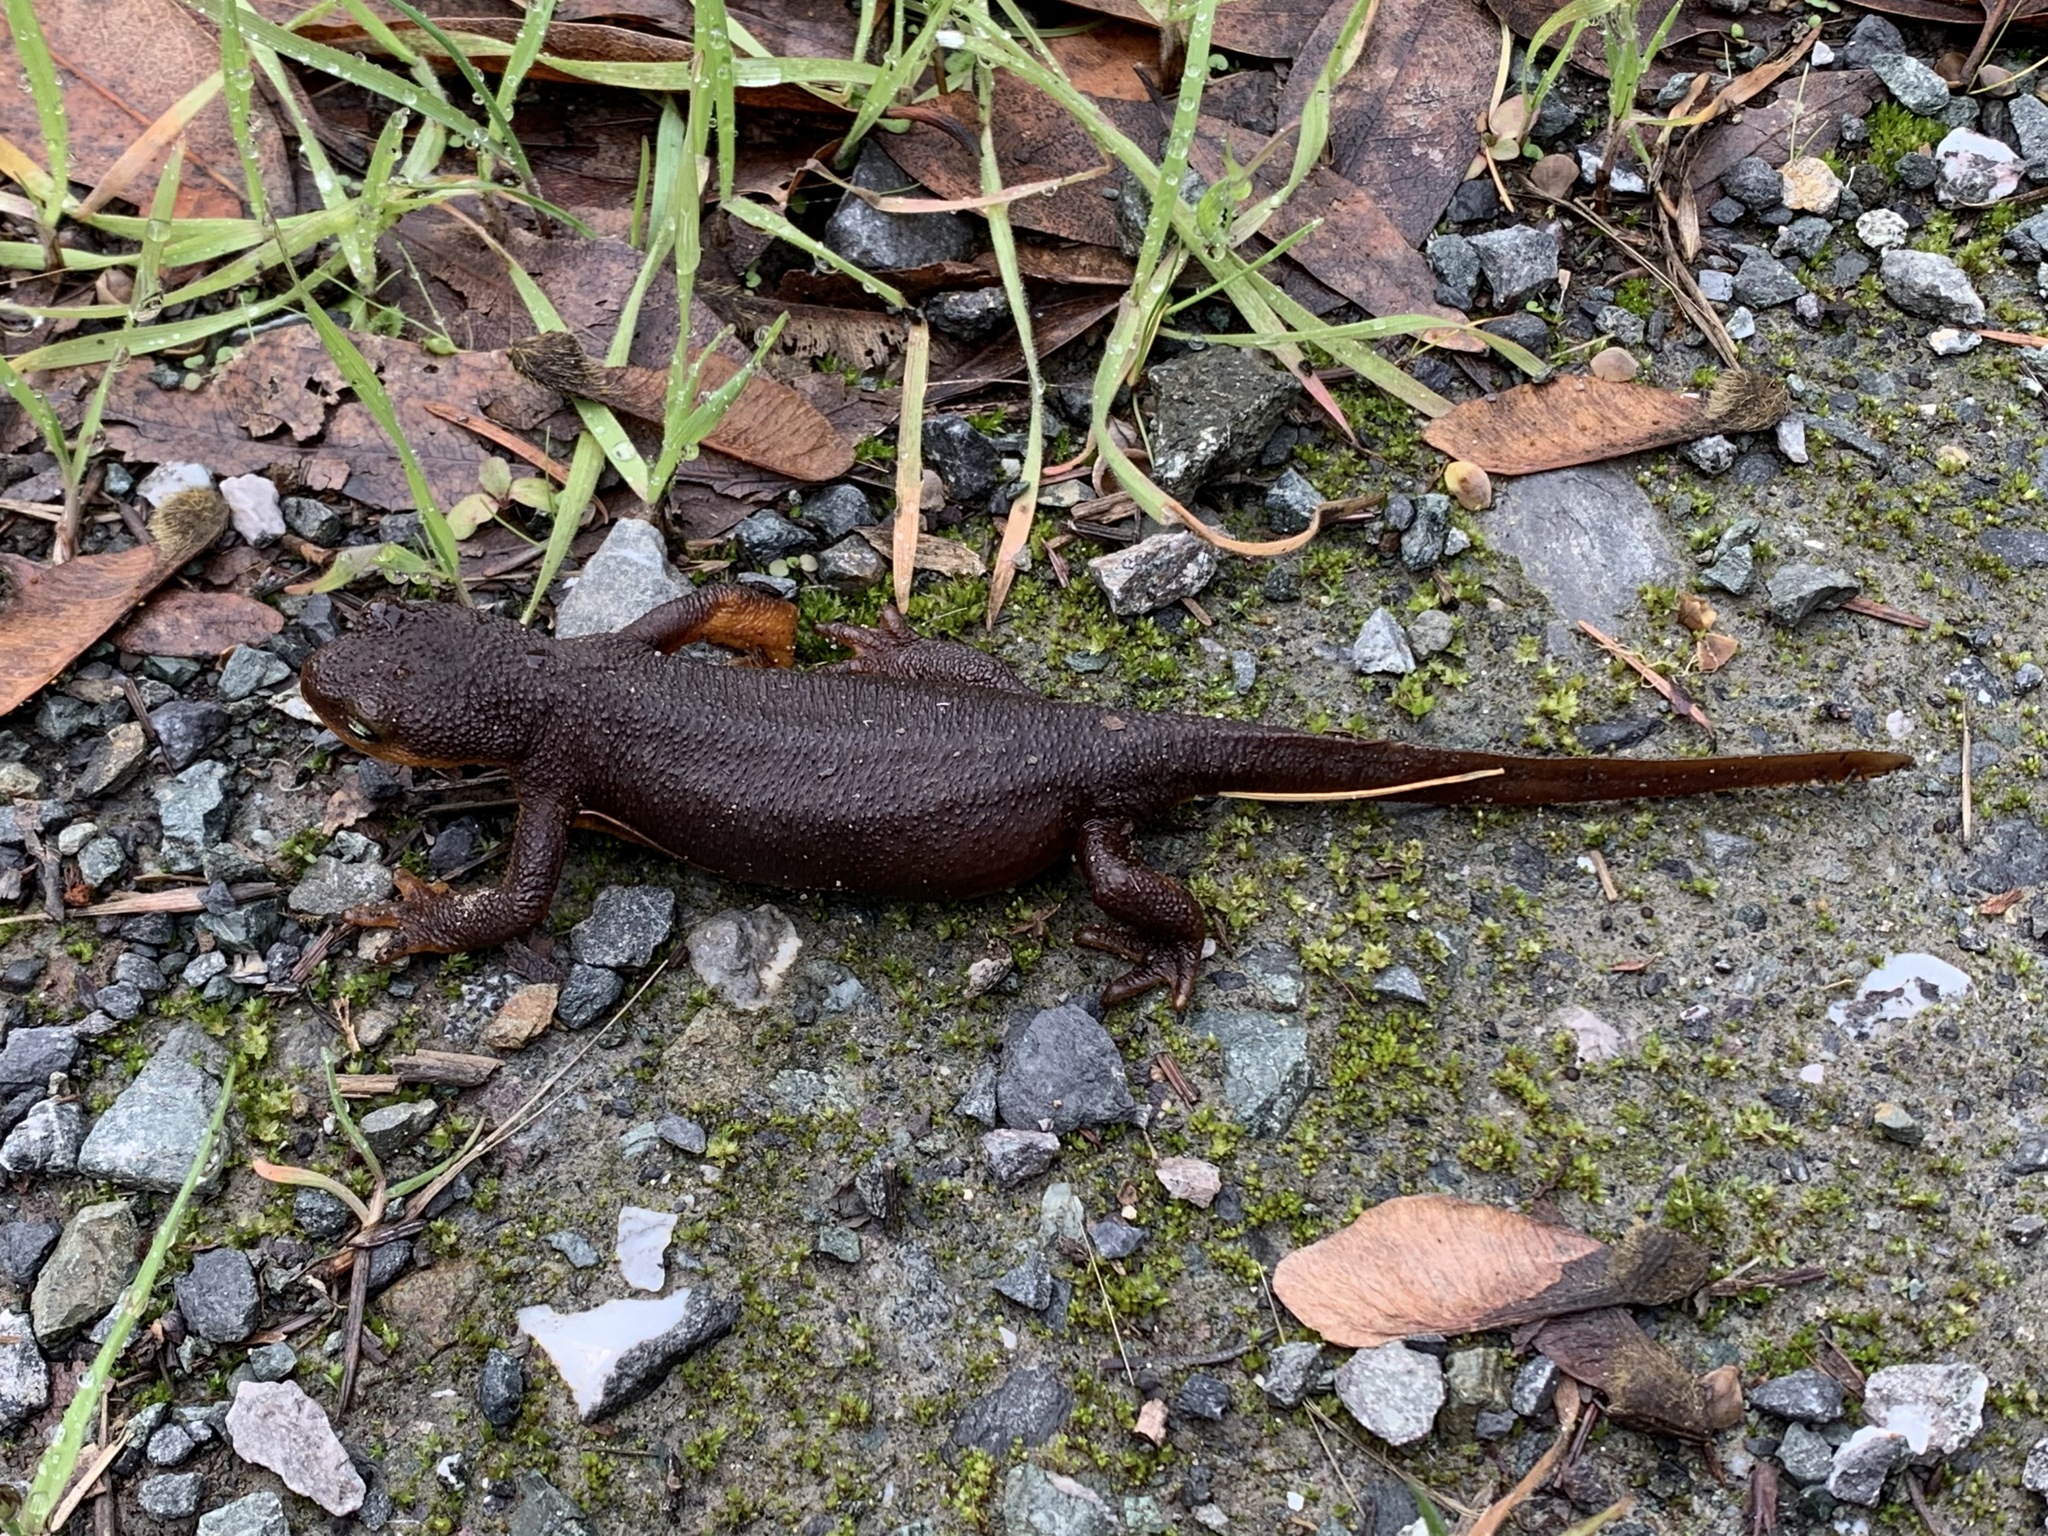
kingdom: Animalia
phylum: Chordata
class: Amphibia
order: Caudata
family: Salamandridae
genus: Taricha
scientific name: Taricha torosa
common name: California newt
